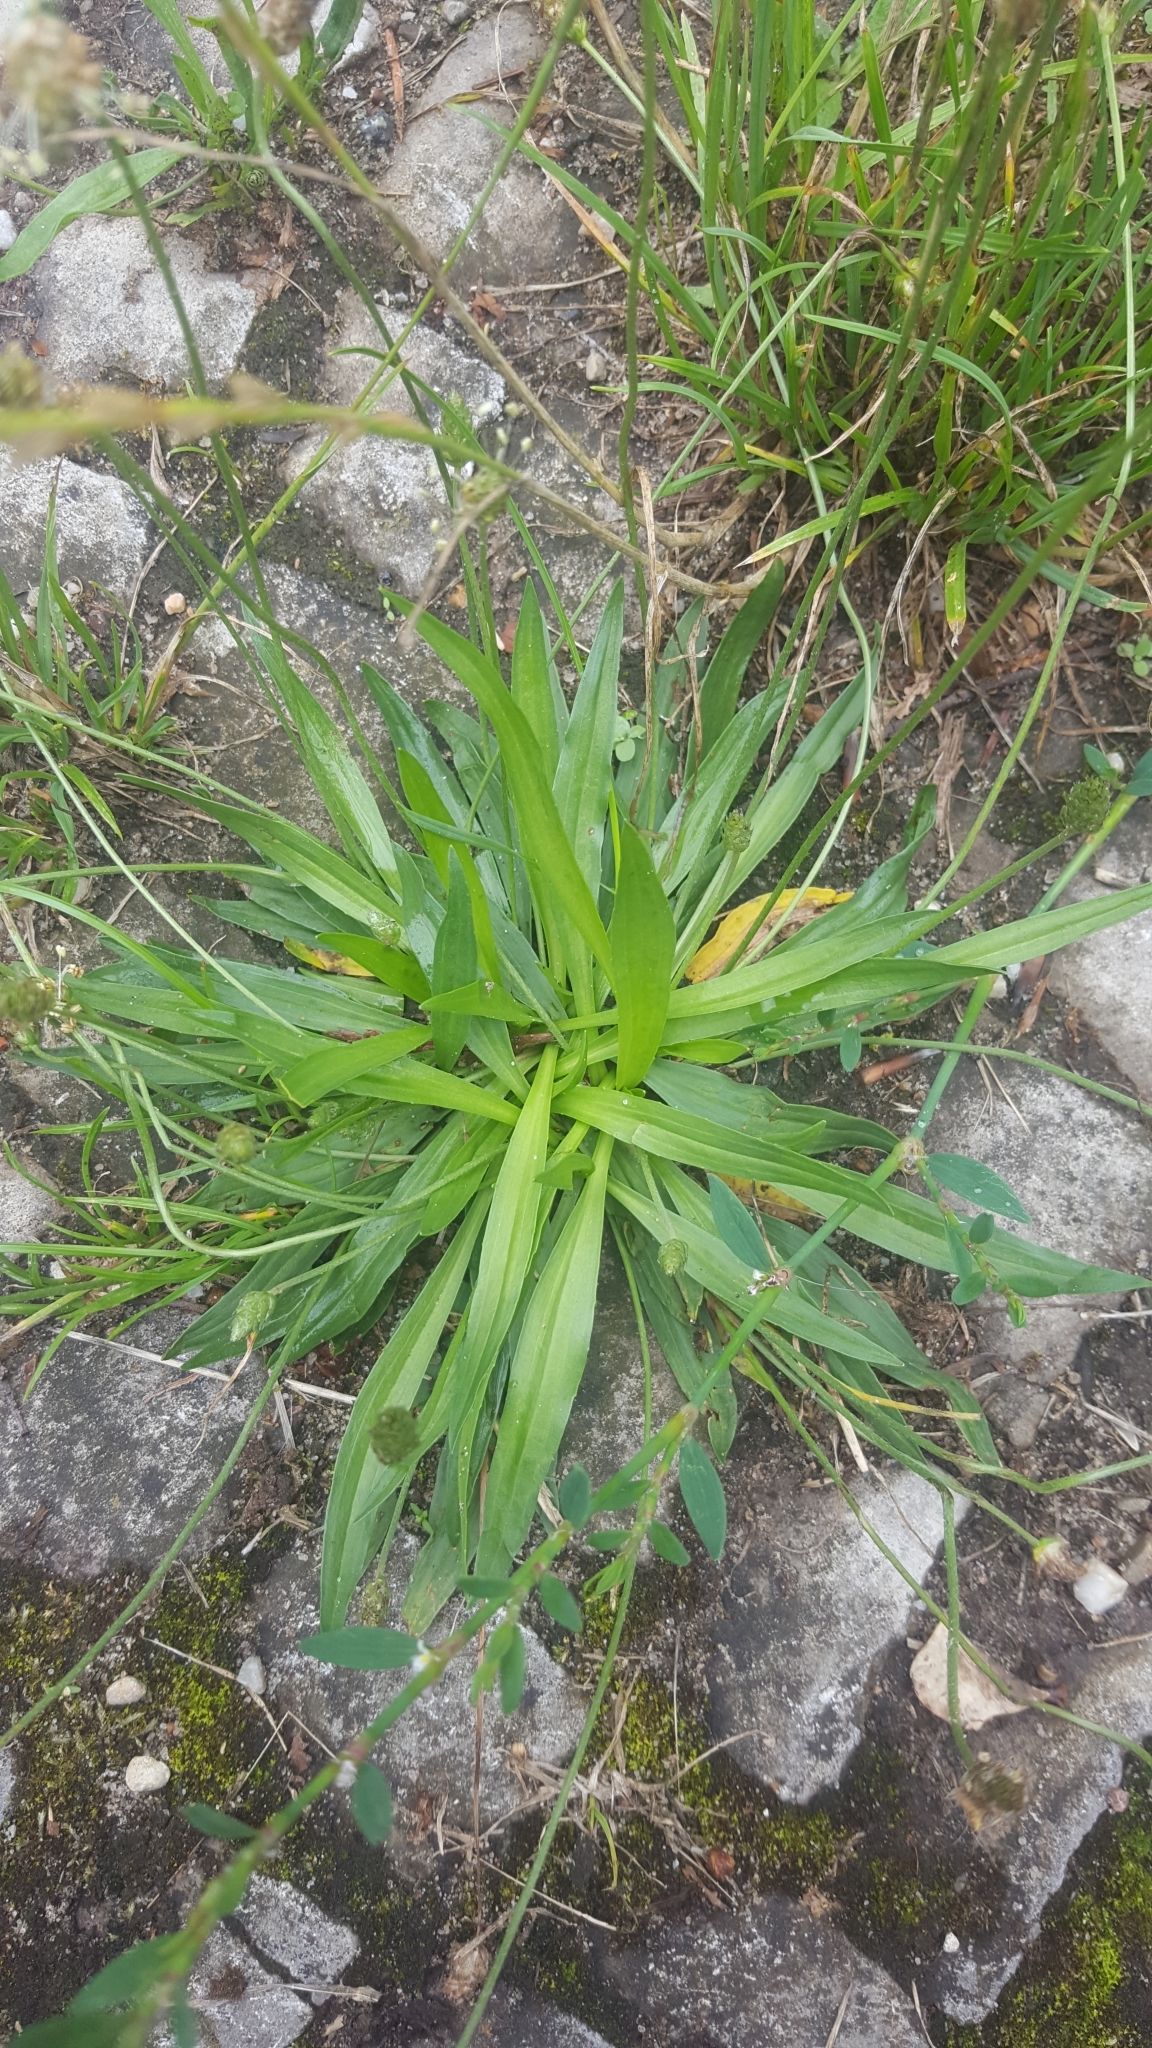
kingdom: Plantae
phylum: Tracheophyta
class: Magnoliopsida
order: Lamiales
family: Plantaginaceae
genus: Plantago
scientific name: Plantago lanceolata
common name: Ribwort plantain
